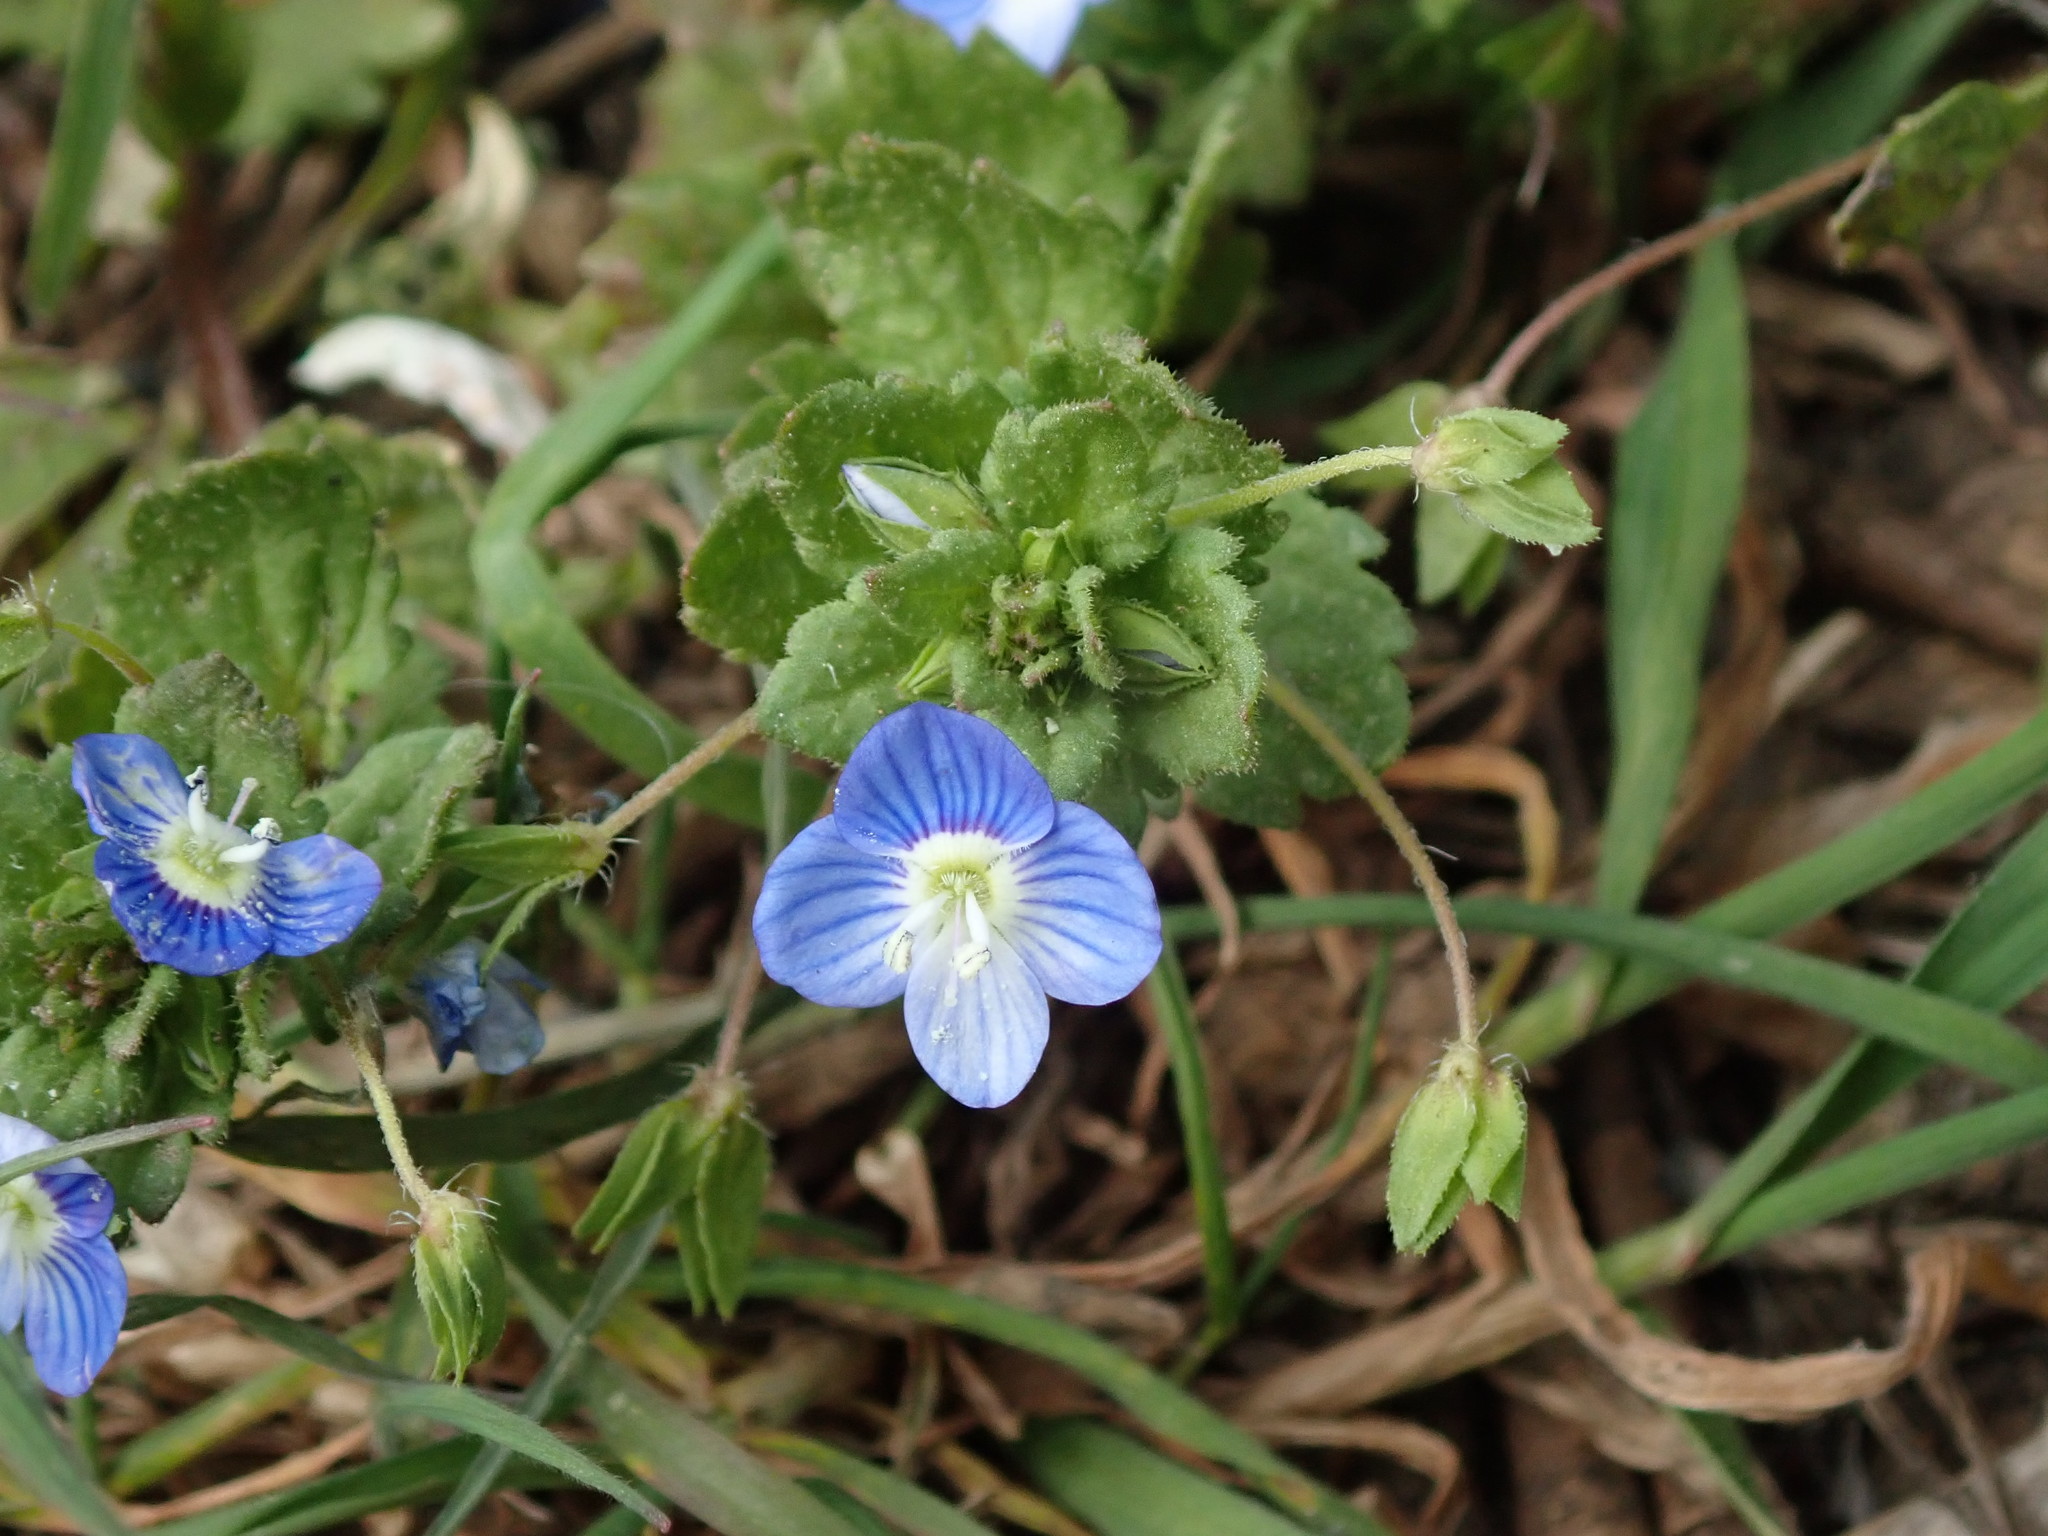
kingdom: Plantae
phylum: Tracheophyta
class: Magnoliopsida
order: Lamiales
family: Plantaginaceae
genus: Veronica
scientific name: Veronica persica
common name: Common field-speedwell
